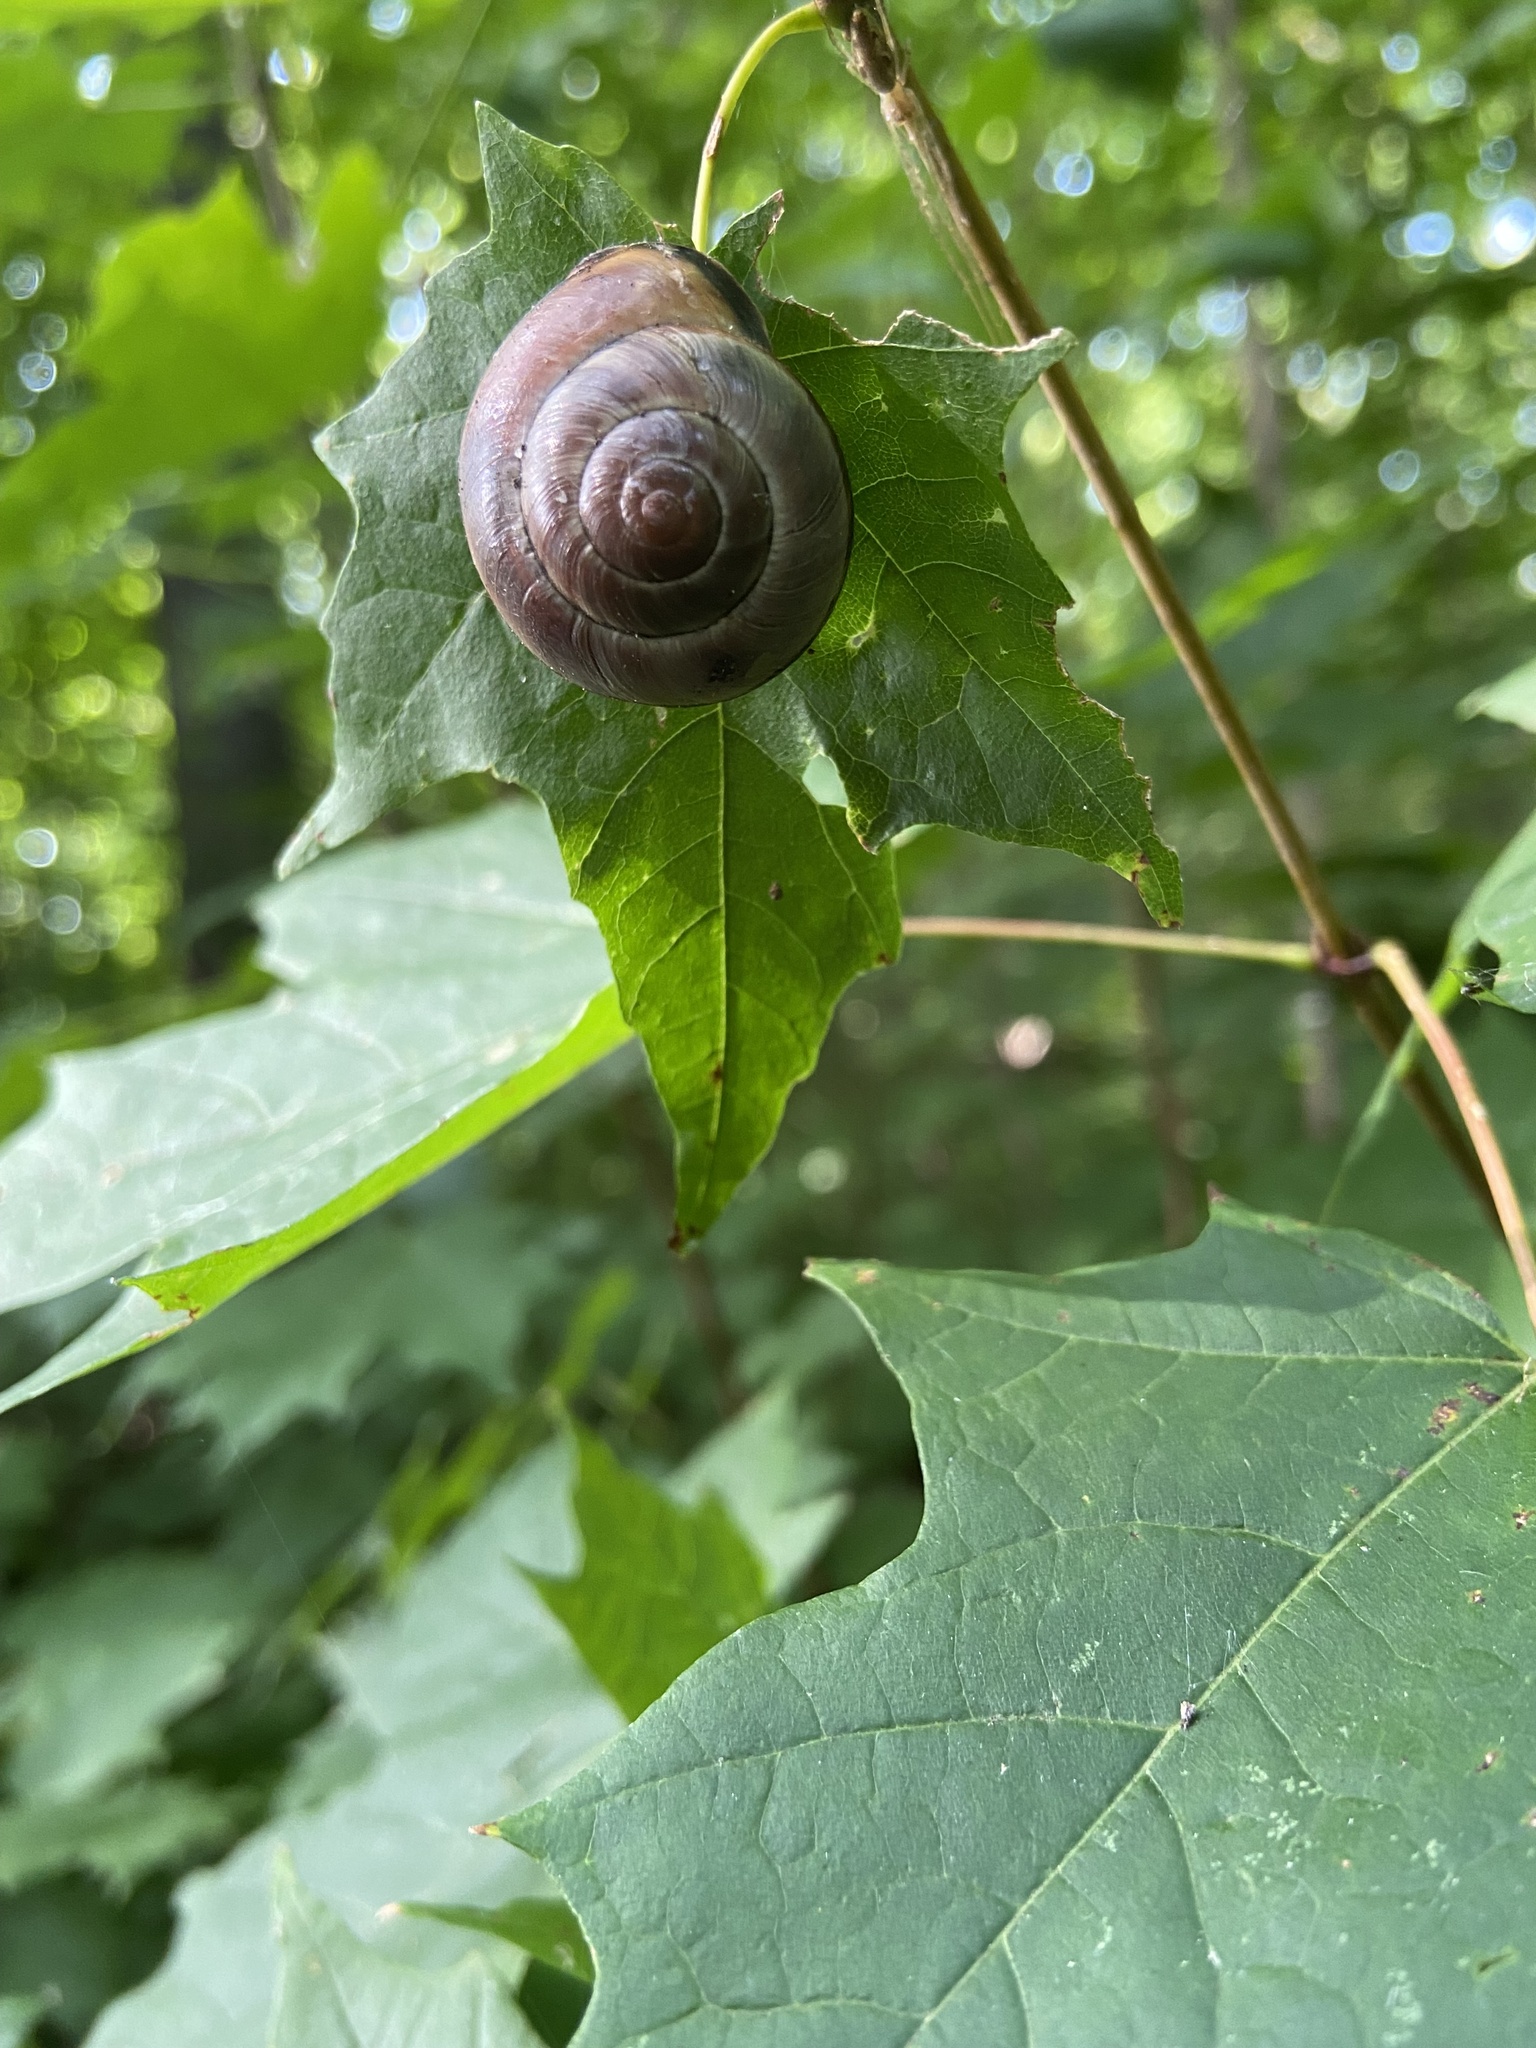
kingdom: Animalia
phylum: Mollusca
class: Gastropoda
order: Stylommatophora
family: Helicidae
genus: Cepaea
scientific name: Cepaea nemoralis
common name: Grovesnail
